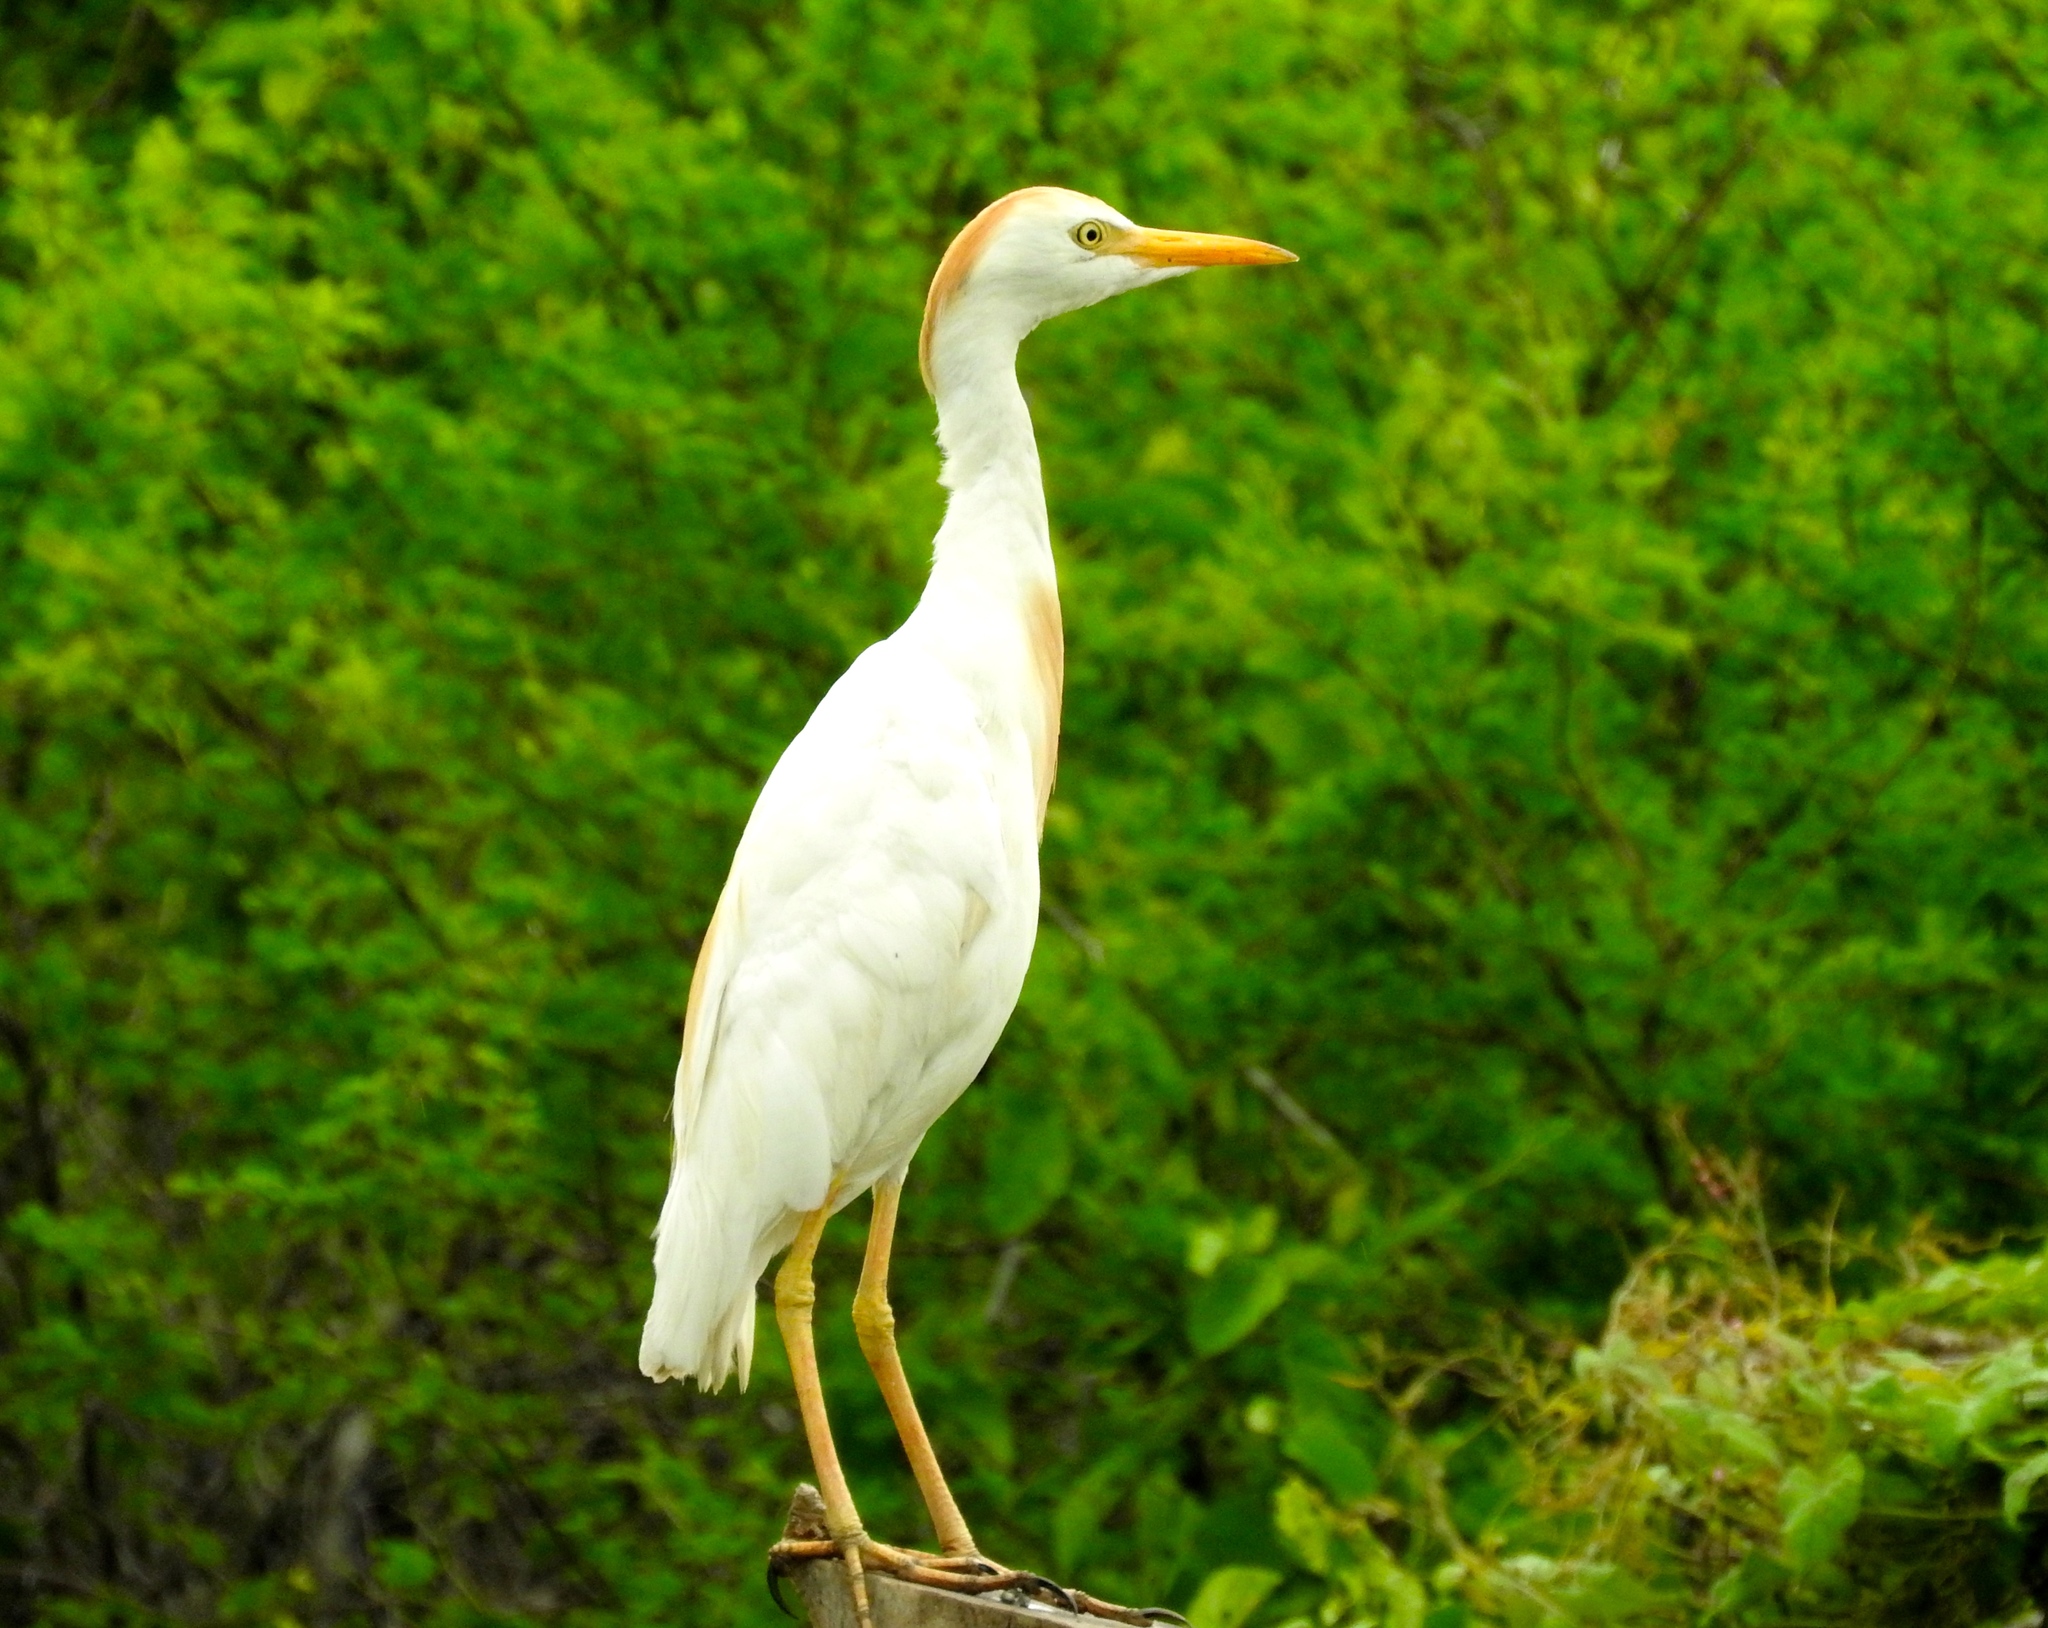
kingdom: Animalia
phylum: Chordata
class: Aves
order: Pelecaniformes
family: Ardeidae
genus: Bubulcus
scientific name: Bubulcus ibis
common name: Cattle egret
